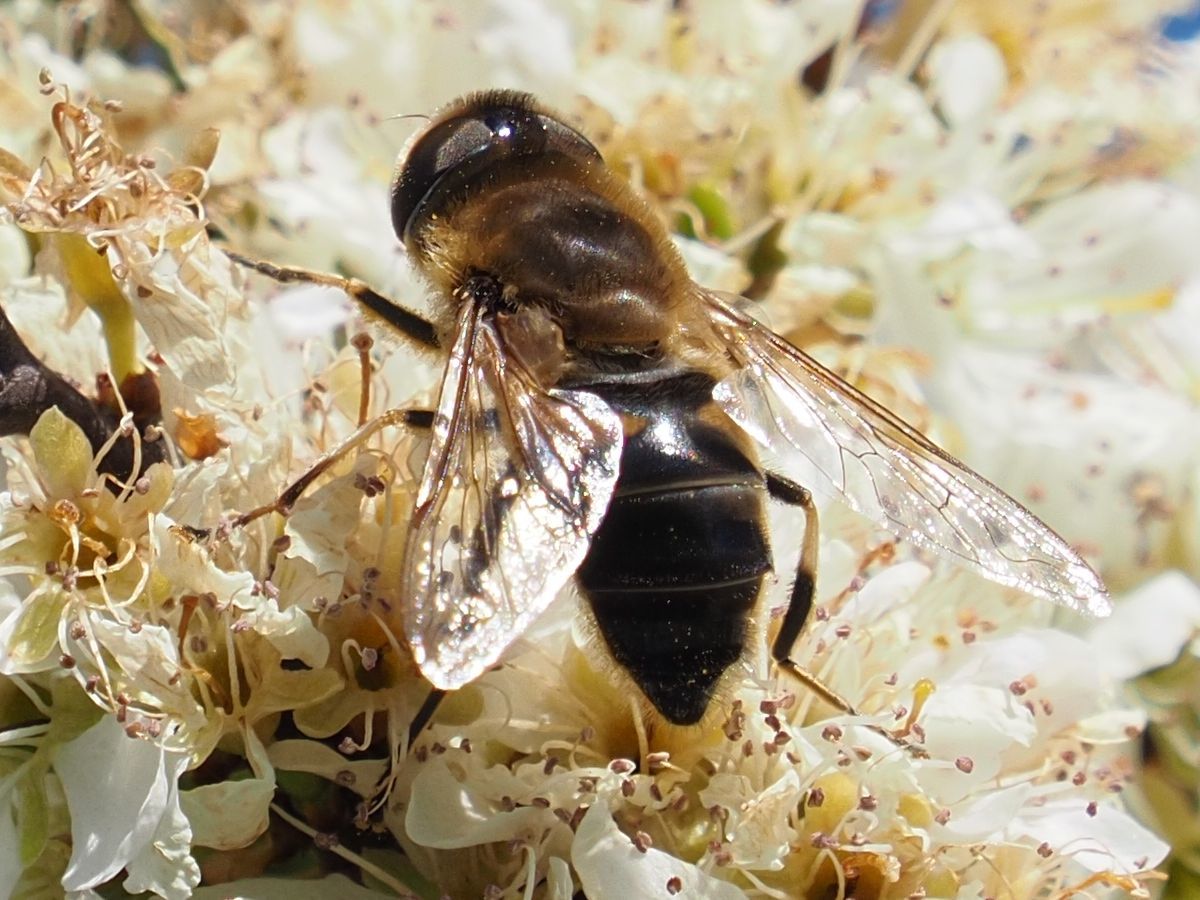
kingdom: Animalia
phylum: Arthropoda
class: Insecta
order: Diptera
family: Syrphidae
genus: Eristalis
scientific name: Eristalis pertinax
